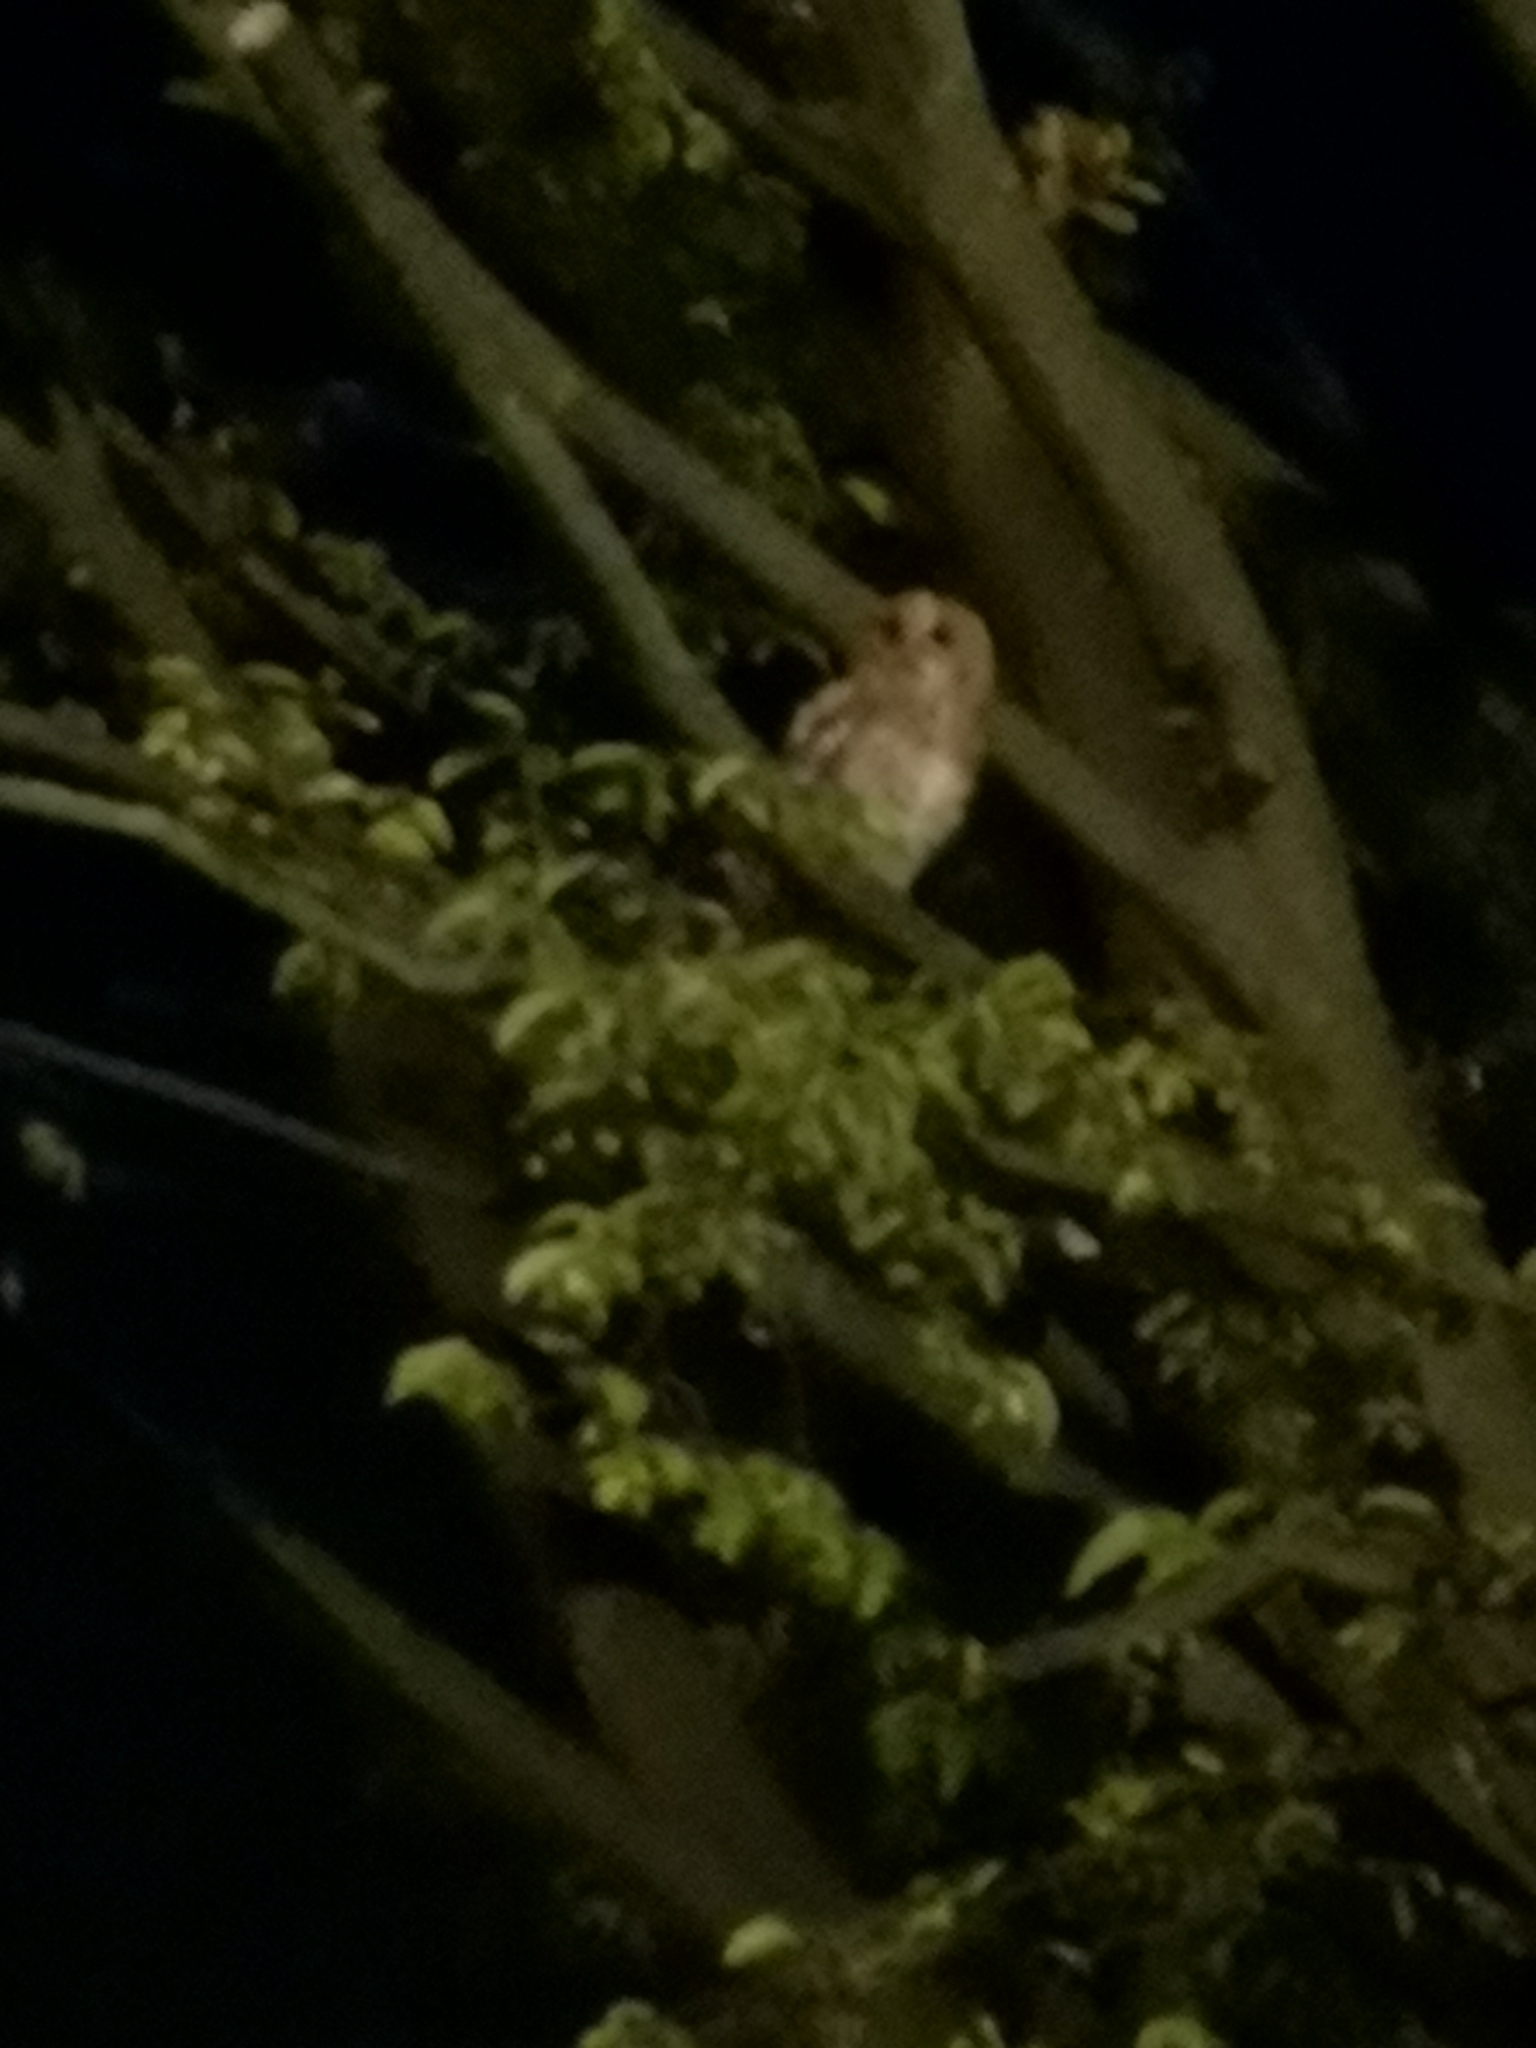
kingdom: Animalia
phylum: Chordata
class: Aves
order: Strigiformes
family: Strigidae
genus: Strix
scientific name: Strix aluco
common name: Tawny owl
